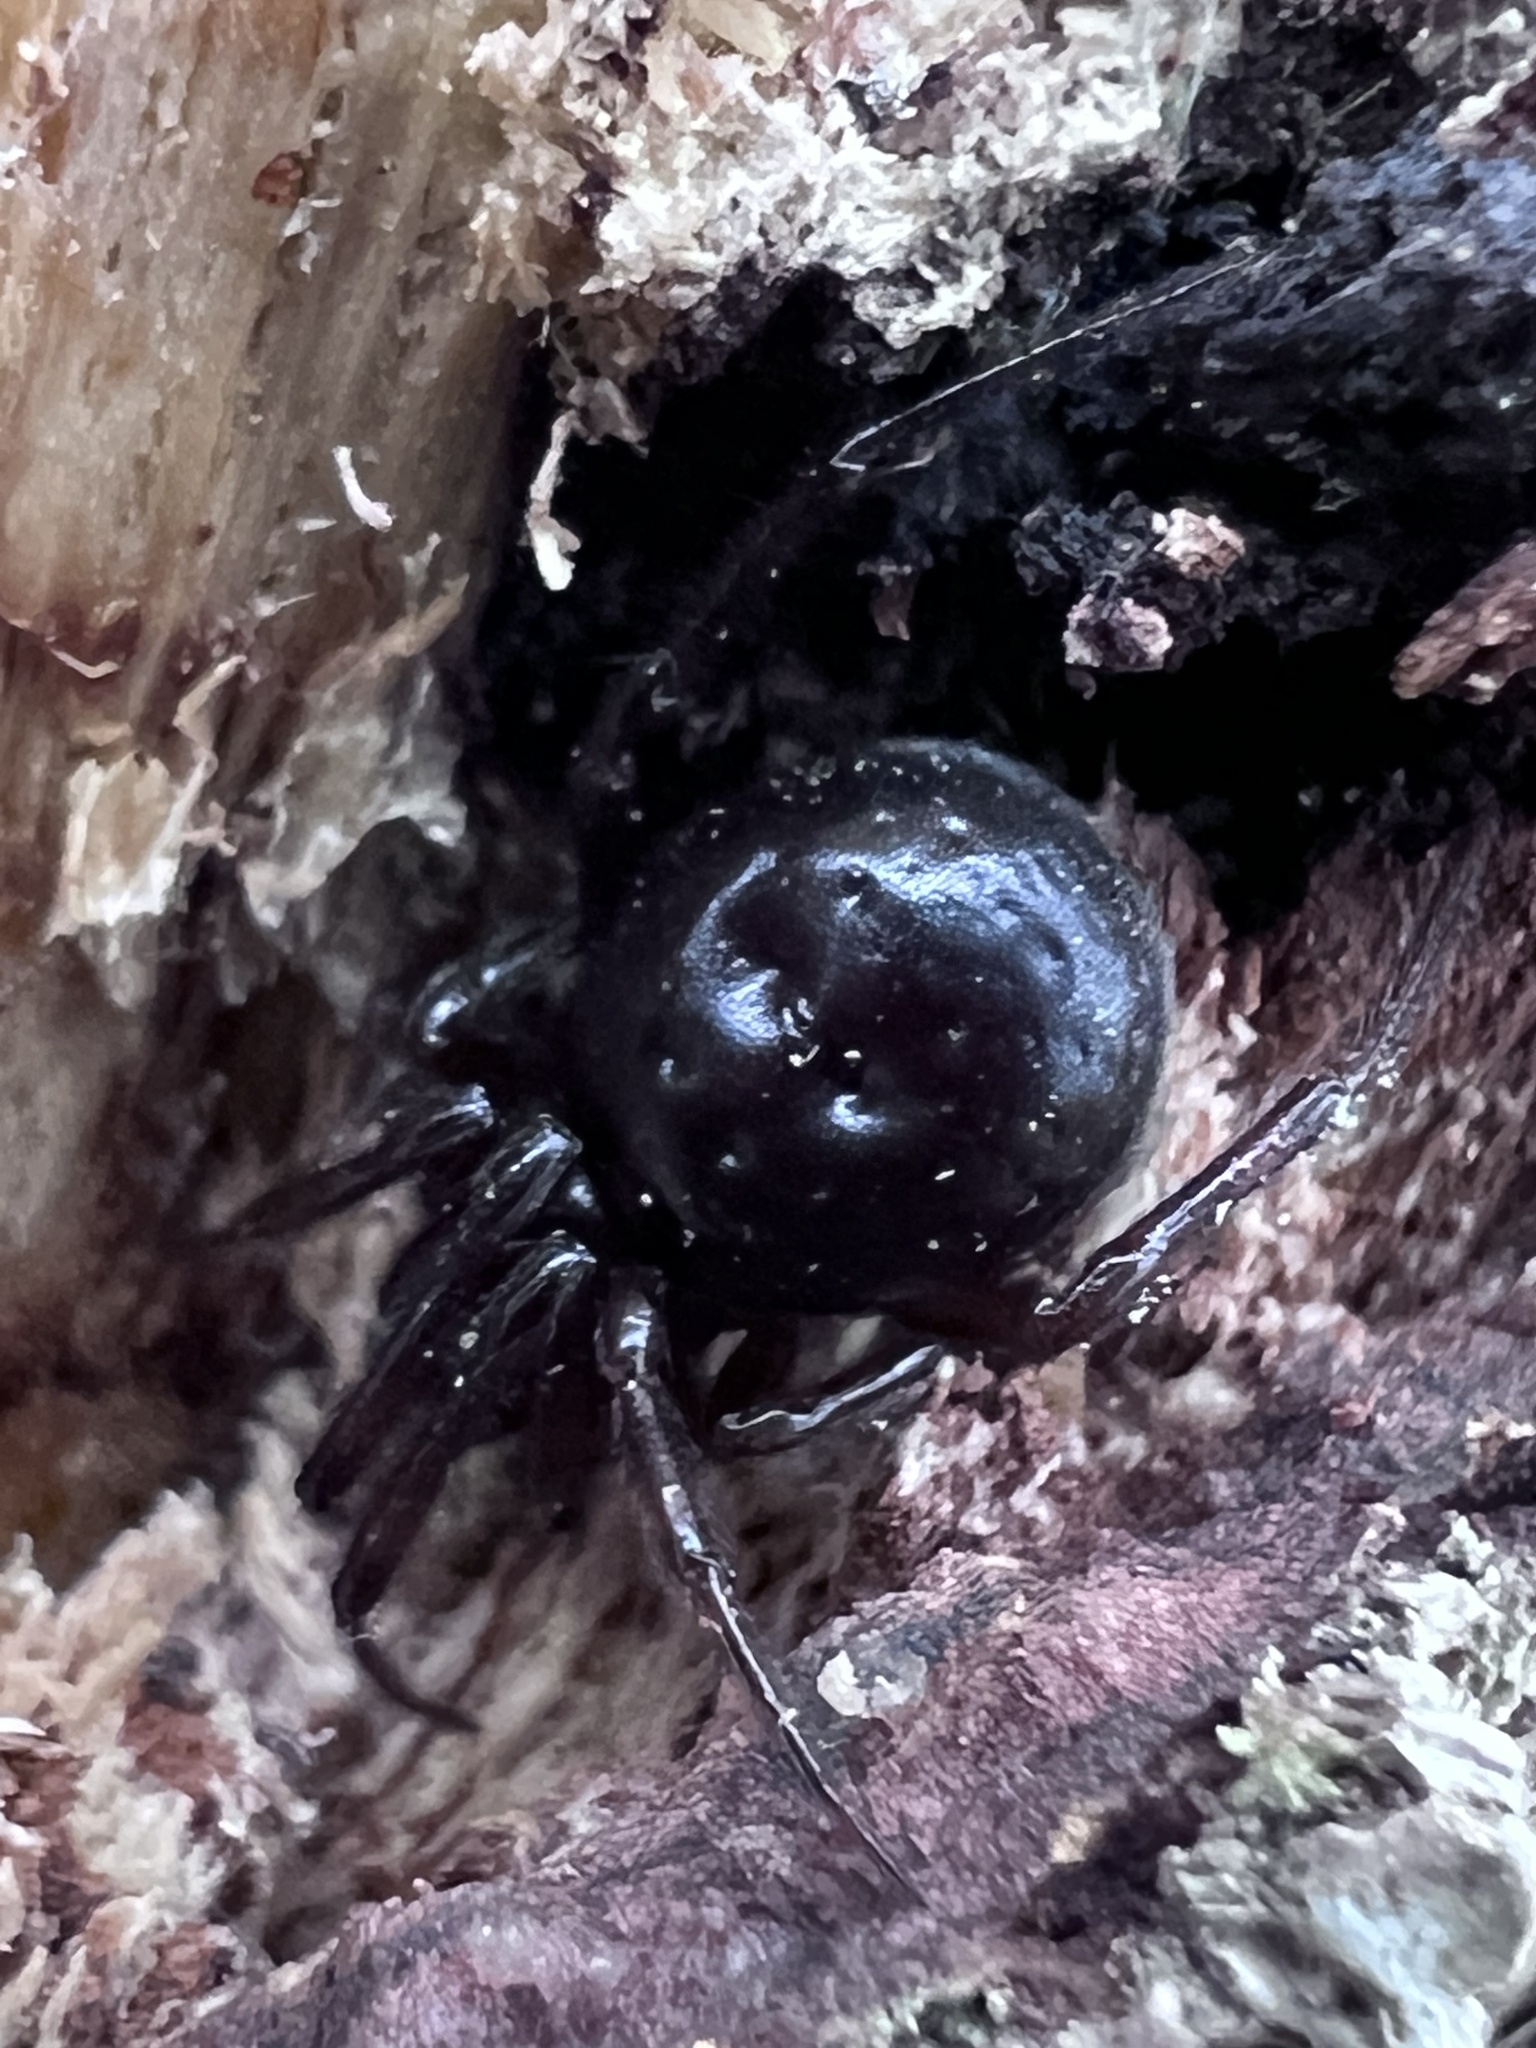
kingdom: Animalia
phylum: Arthropoda
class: Arachnida
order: Araneae
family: Theridiidae
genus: Steatoda
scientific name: Steatoda borealis
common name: Boreal combfoot
